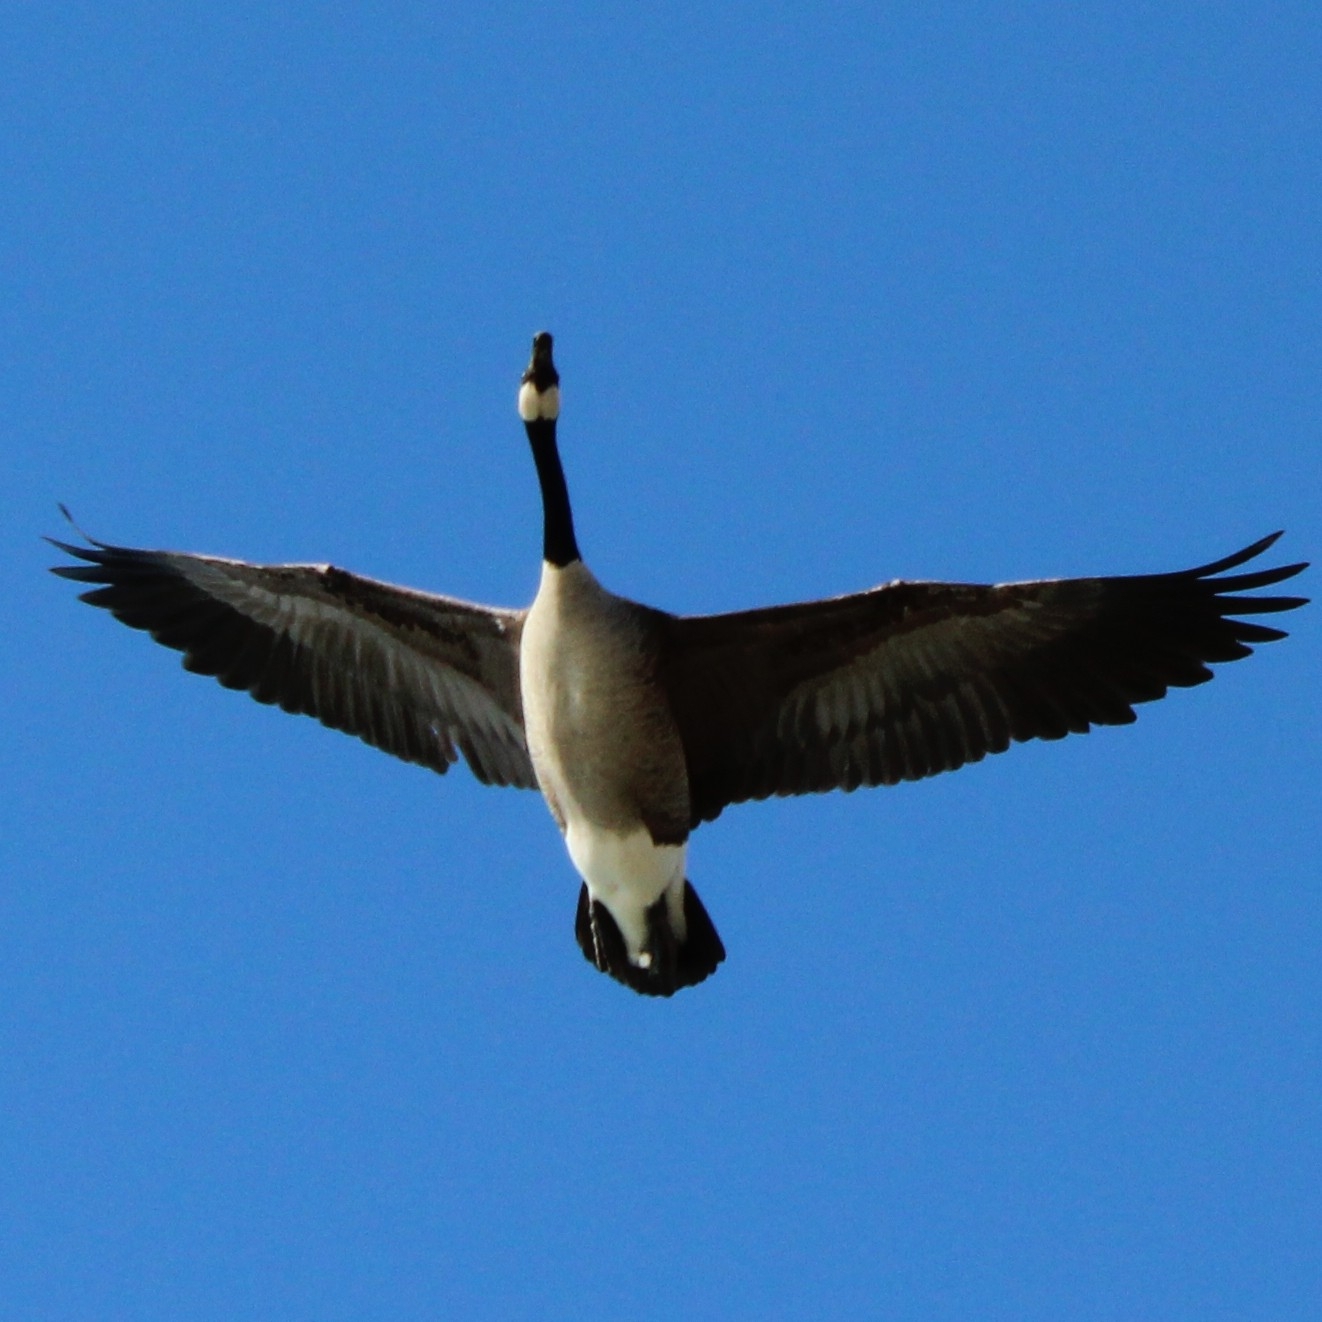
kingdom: Animalia
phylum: Chordata
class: Aves
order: Anseriformes
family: Anatidae
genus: Branta
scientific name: Branta canadensis
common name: Canada goose
